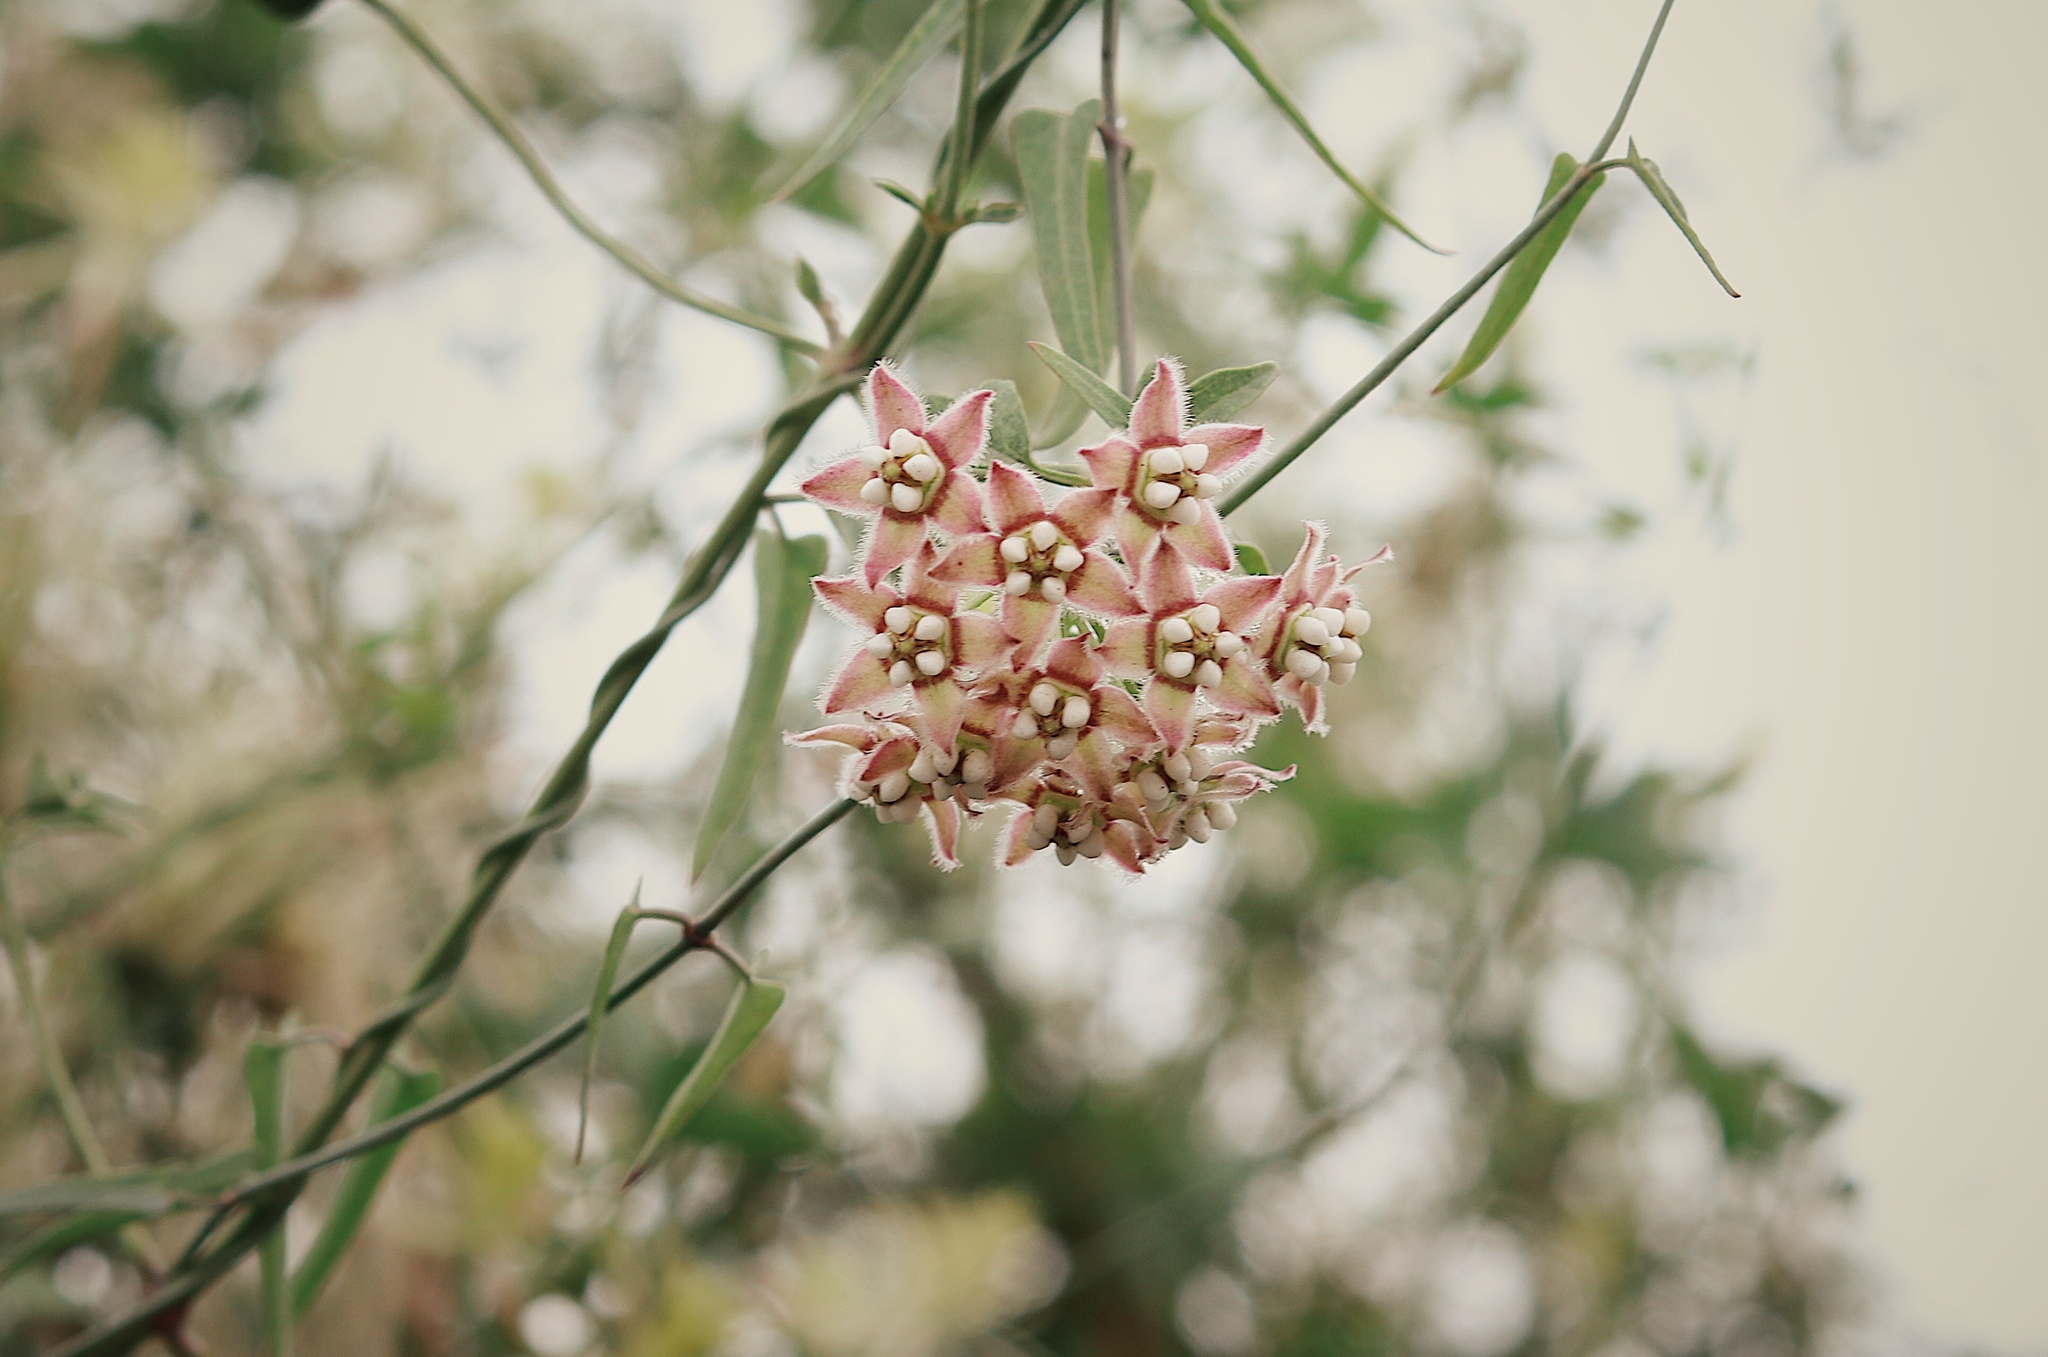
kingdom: Plantae
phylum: Tracheophyta
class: Magnoliopsida
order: Gentianales
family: Apocynaceae
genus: Funastrum
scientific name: Funastrum heterophyllum
